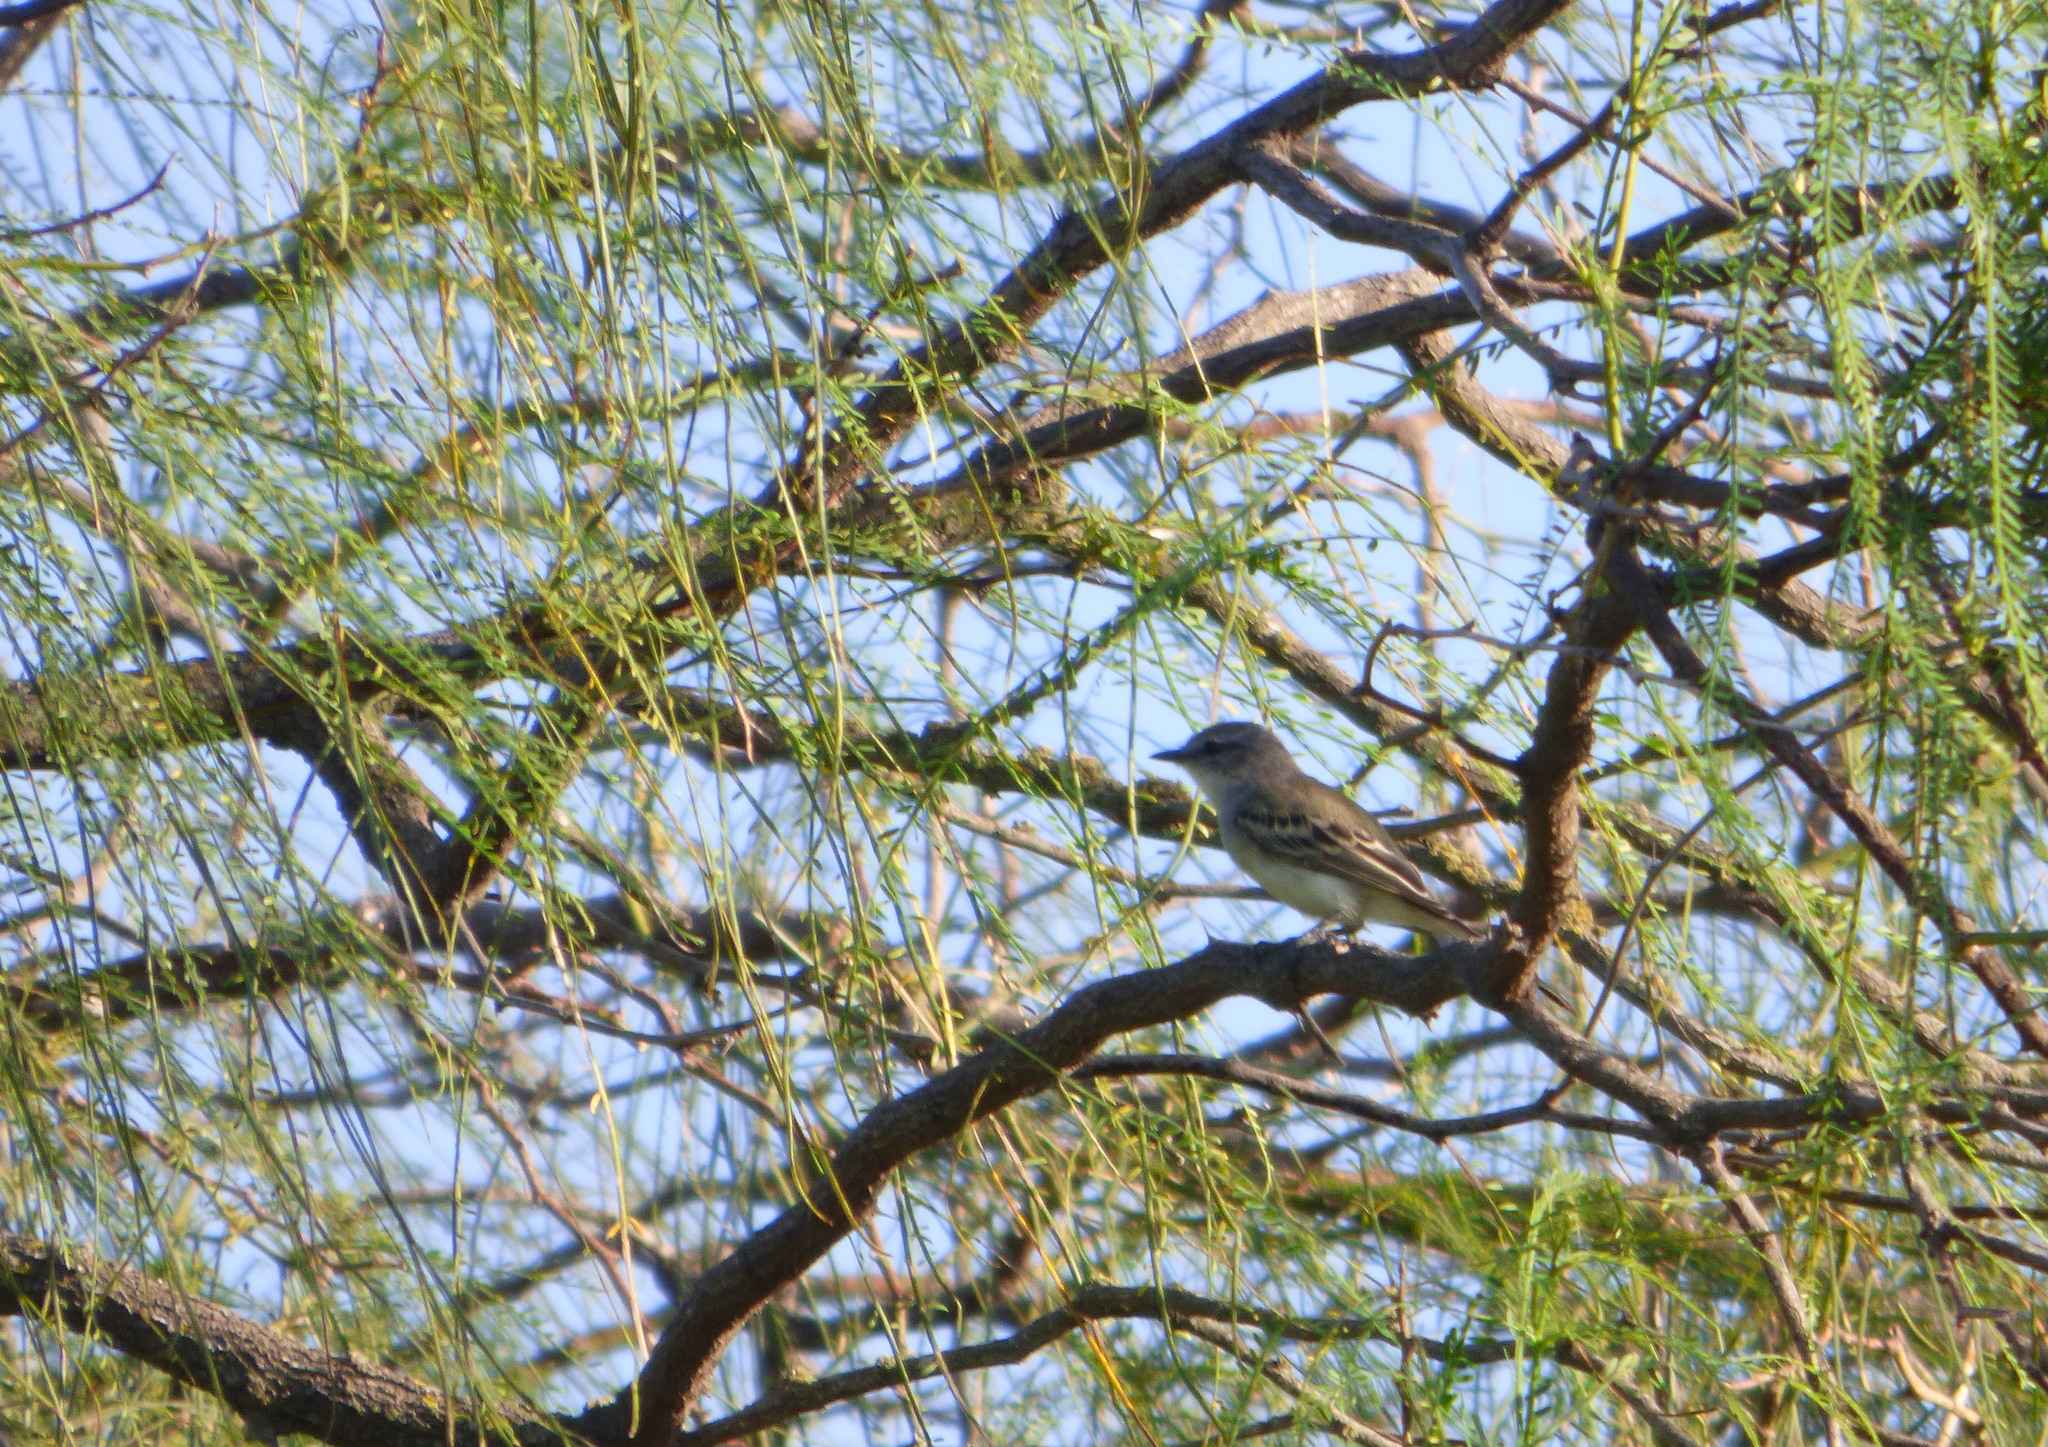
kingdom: Animalia
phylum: Chordata
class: Aves
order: Passeriformes
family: Tyrannidae
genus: Suiriri
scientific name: Suiriri suiriri
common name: Suiriri flycatcher
